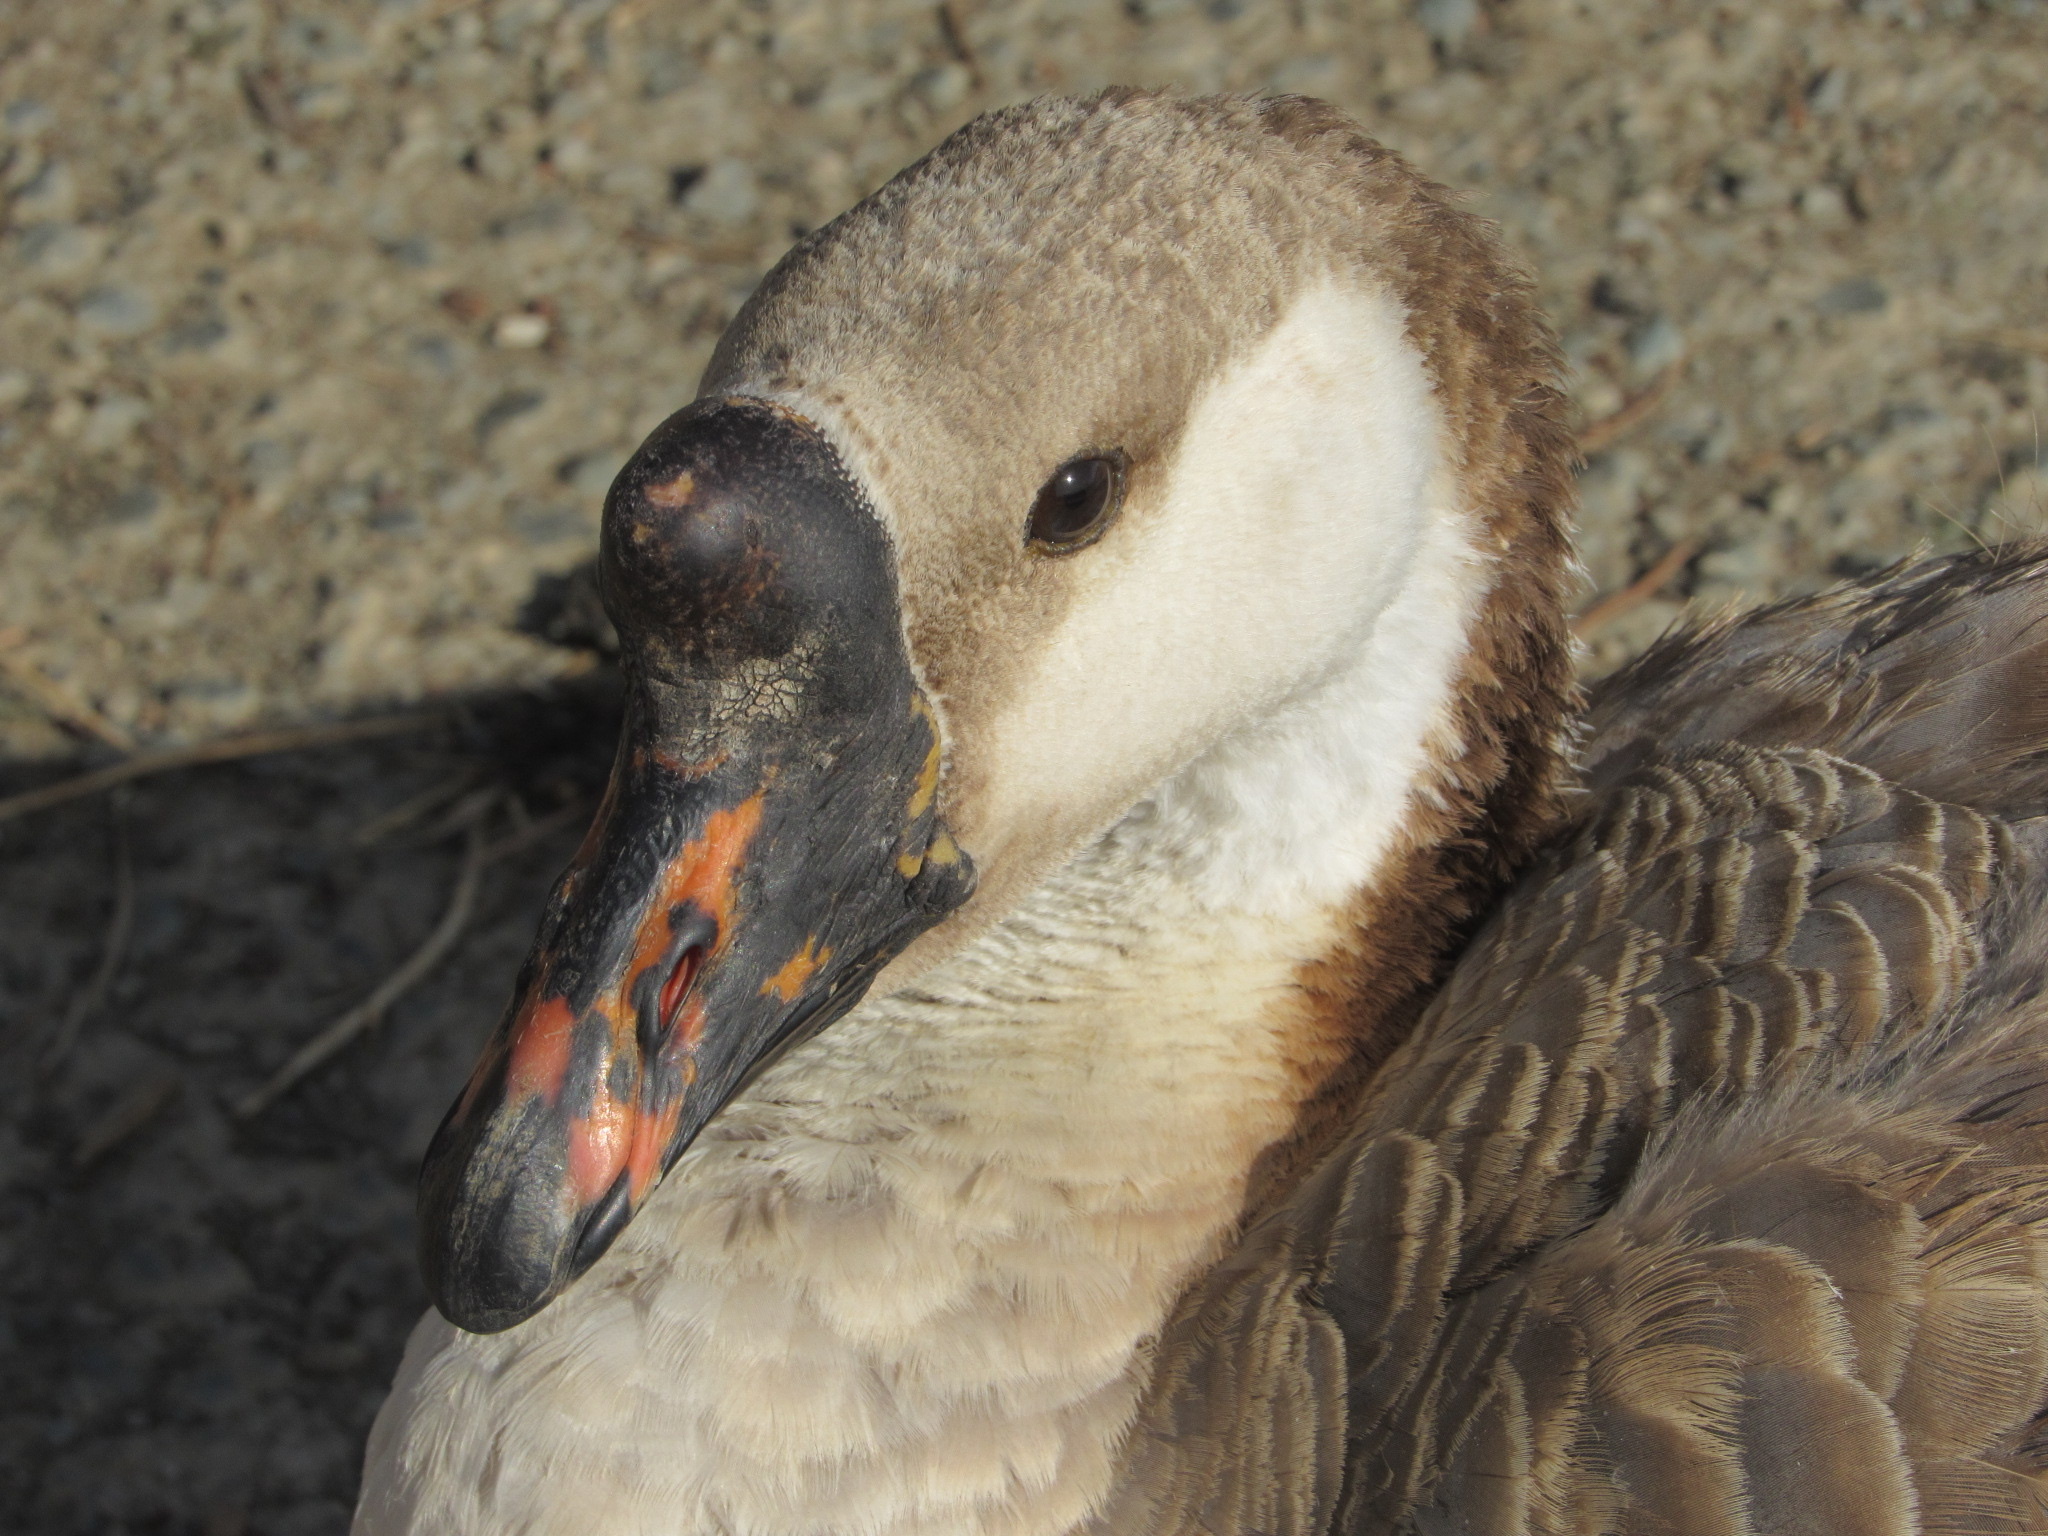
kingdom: Animalia
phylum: Chordata
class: Aves
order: Anseriformes
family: Anatidae
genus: Anser
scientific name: Anser cygnoides
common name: Swan goose
